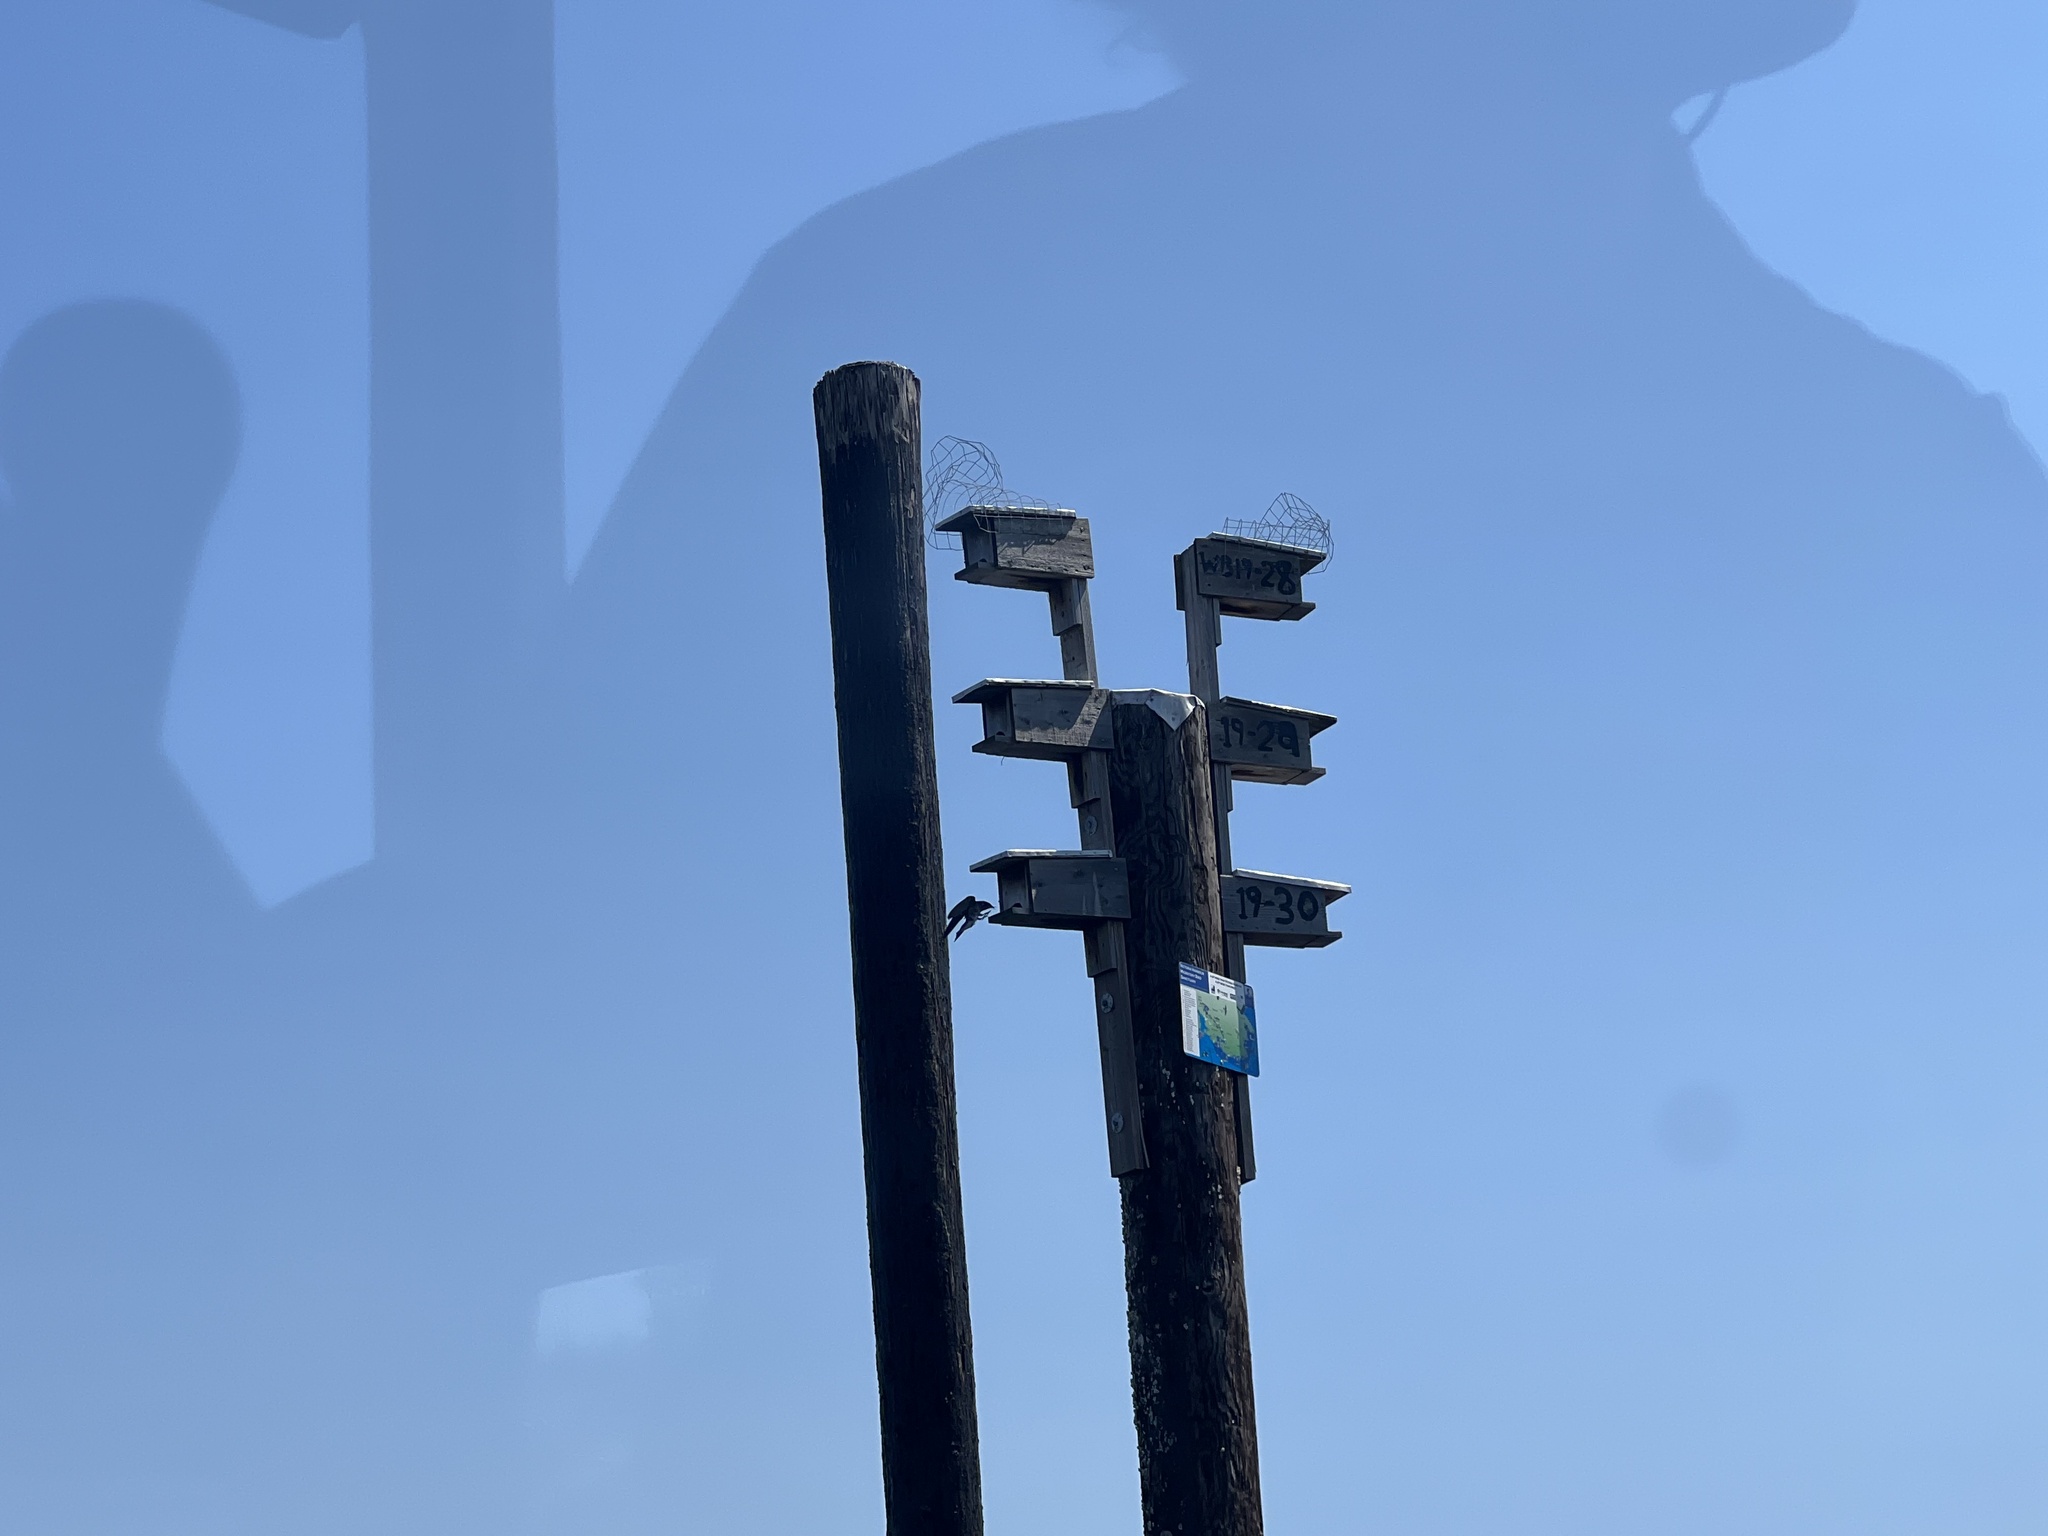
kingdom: Animalia
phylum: Chordata
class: Aves
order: Passeriformes
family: Hirundinidae
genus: Progne
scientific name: Progne subis
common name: Purple martin
